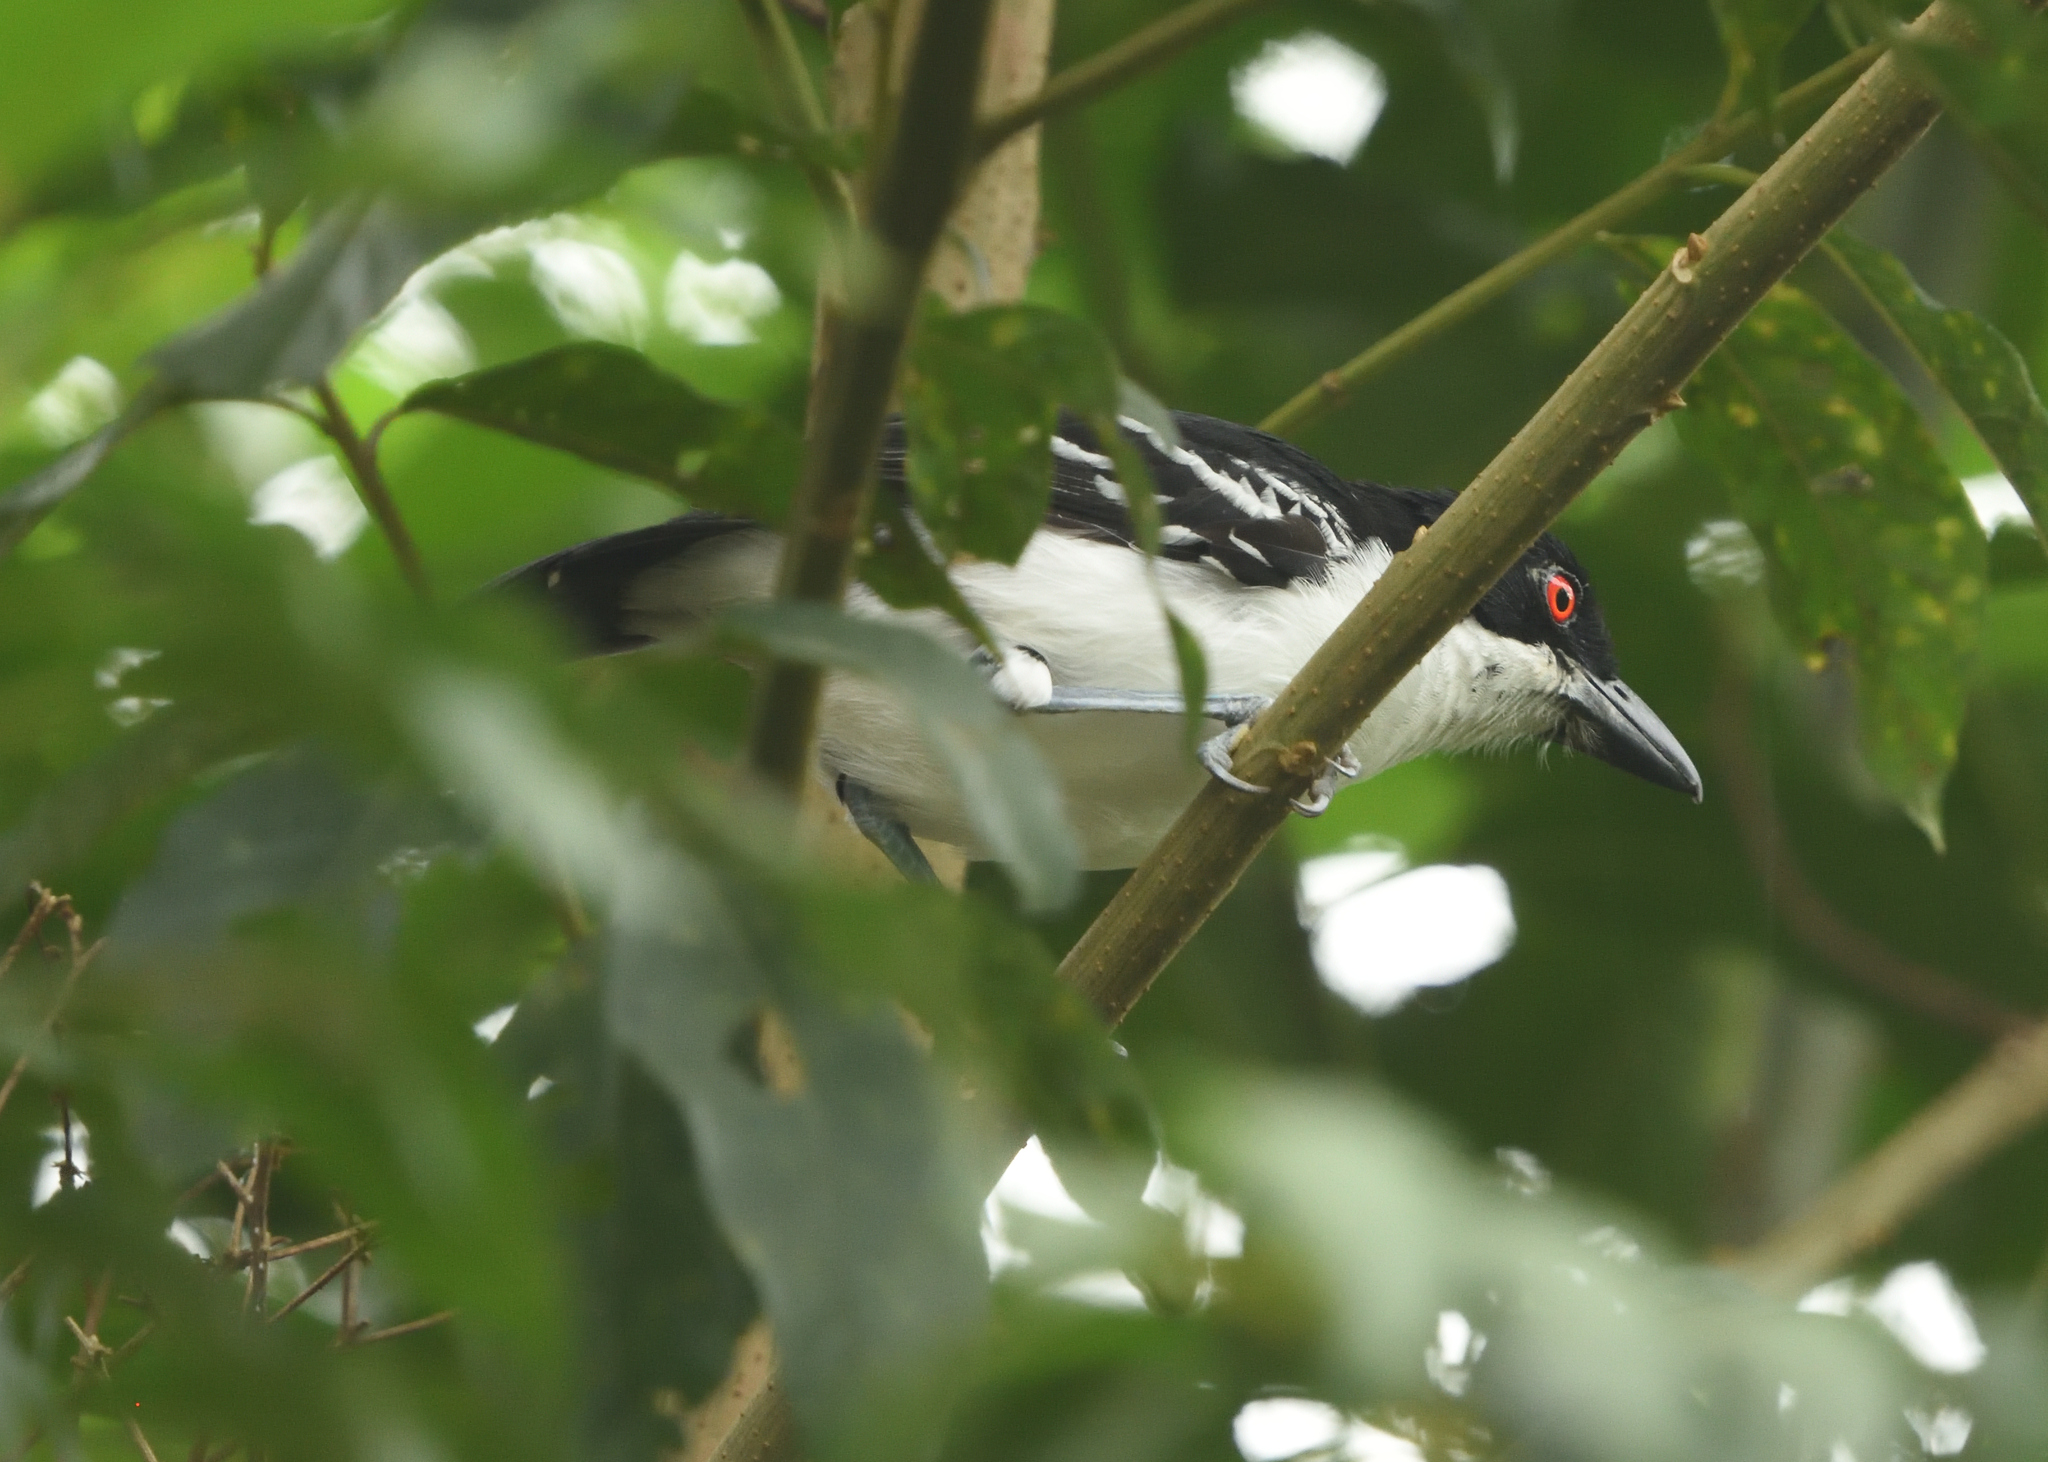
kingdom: Animalia
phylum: Chordata
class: Aves
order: Passeriformes
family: Thamnophilidae
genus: Taraba
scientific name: Taraba major
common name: Great antshrike
